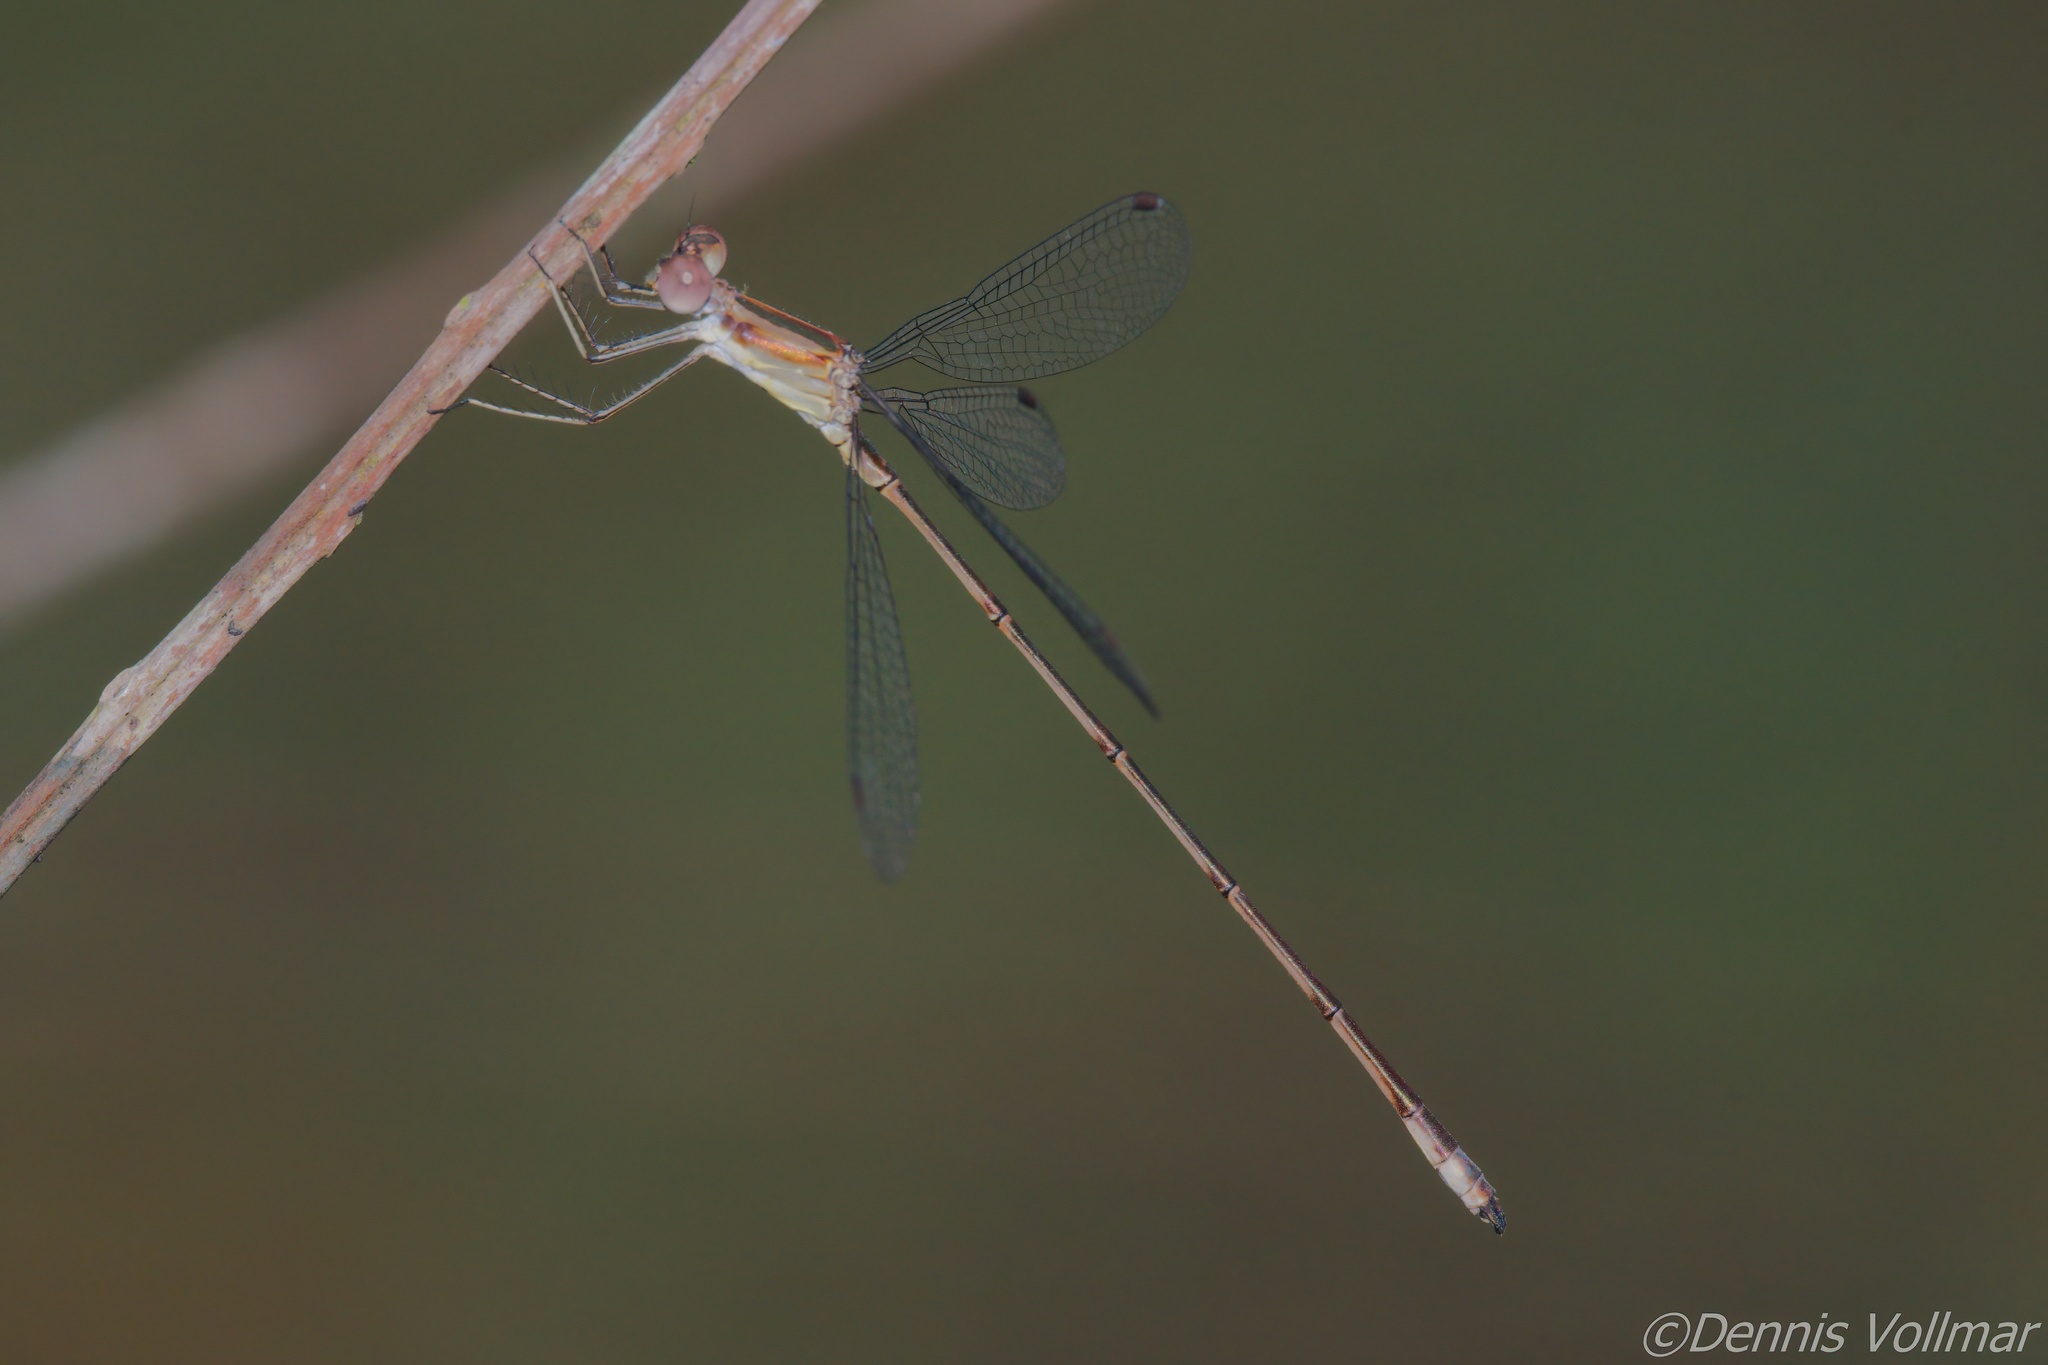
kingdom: Animalia
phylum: Arthropoda
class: Insecta
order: Odonata
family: Lestidae
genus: Lestes
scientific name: Lestes tenuatus
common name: Blue-striped spreadwing
